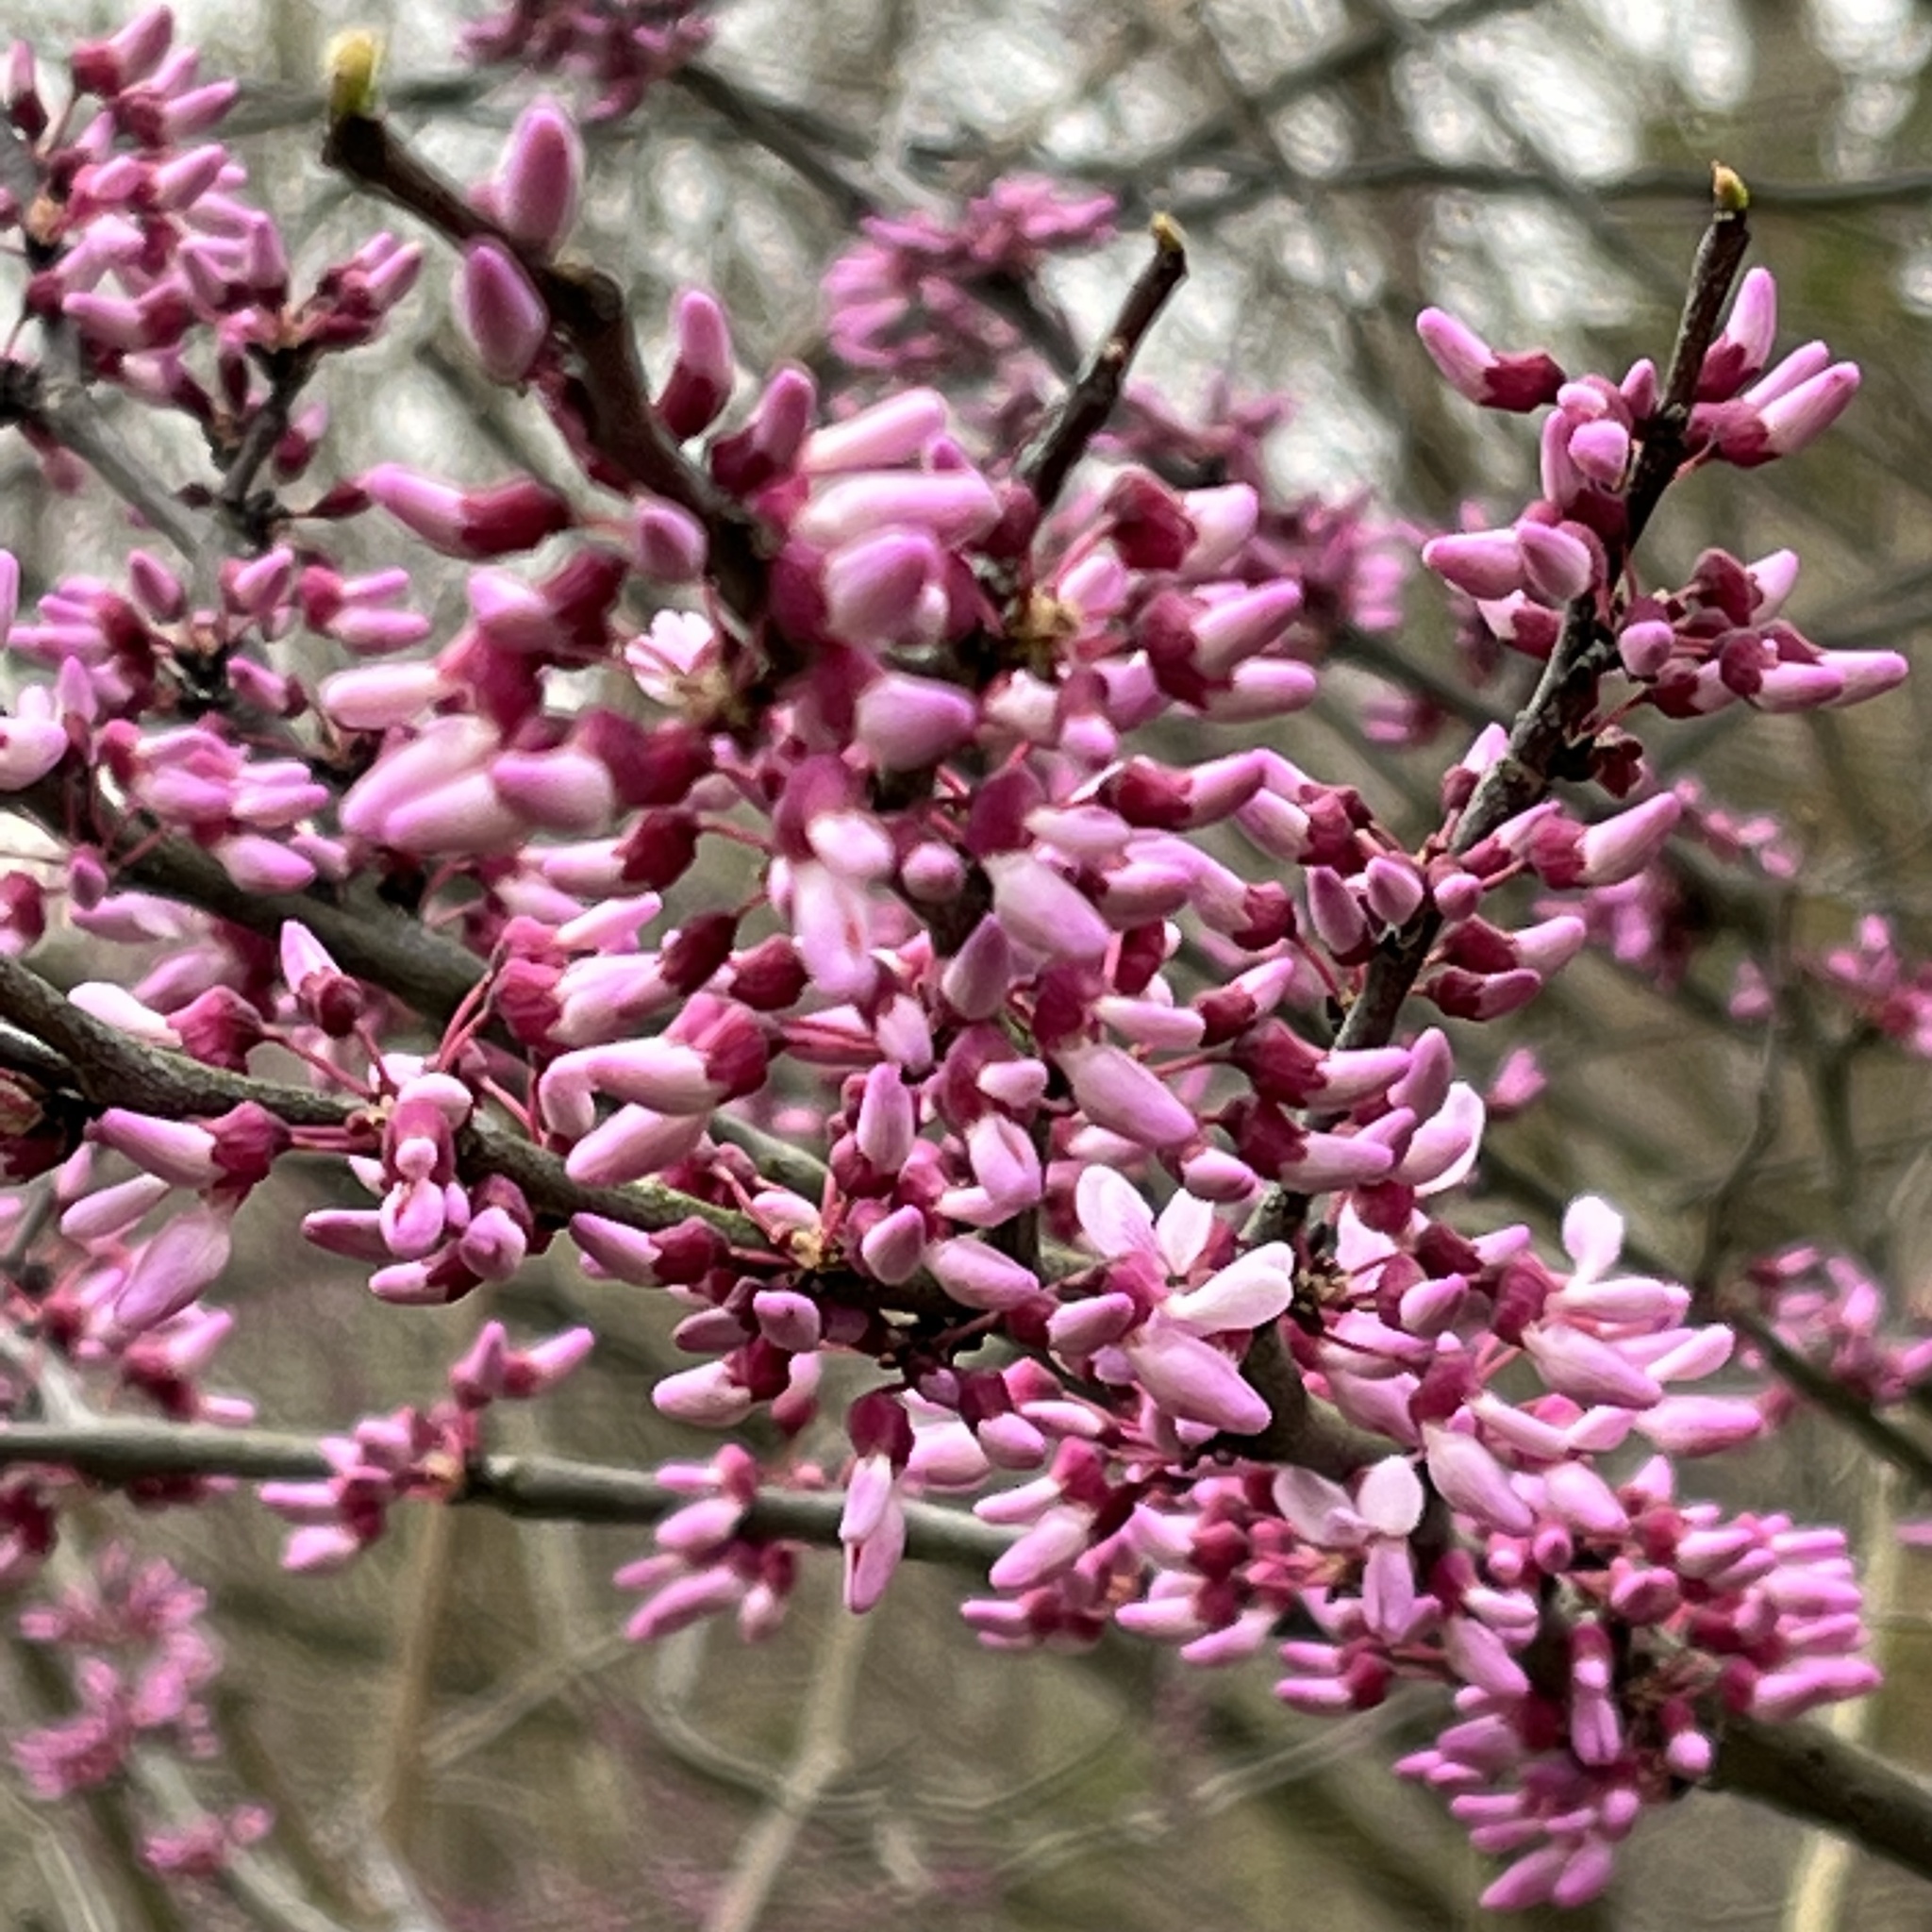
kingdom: Plantae
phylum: Tracheophyta
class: Magnoliopsida
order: Fabales
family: Fabaceae
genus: Cercis
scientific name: Cercis canadensis
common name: Eastern redbud
